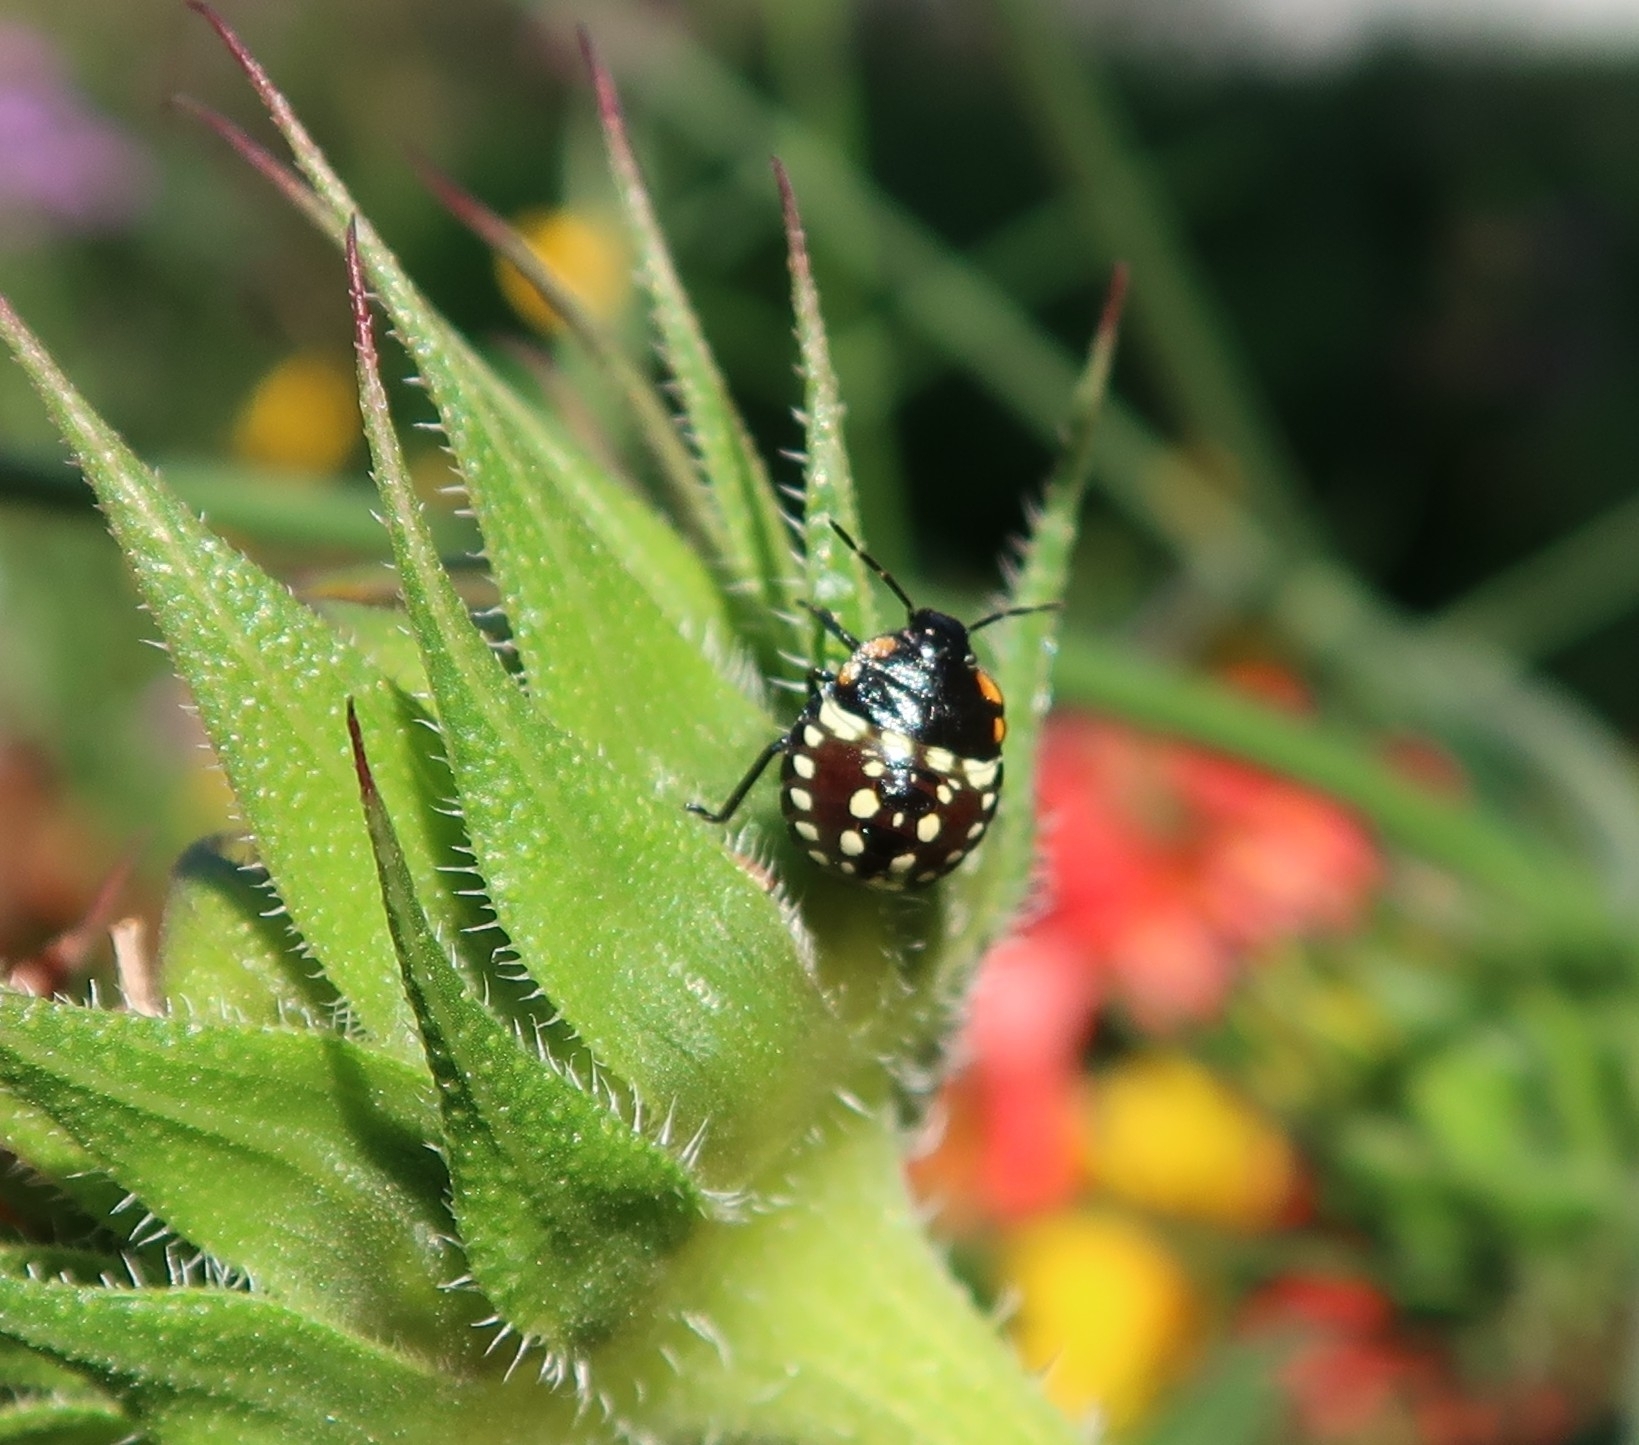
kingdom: Animalia
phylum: Arthropoda
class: Insecta
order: Hemiptera
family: Pentatomidae
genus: Nezara
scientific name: Nezara viridula
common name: Southern green stink bug
